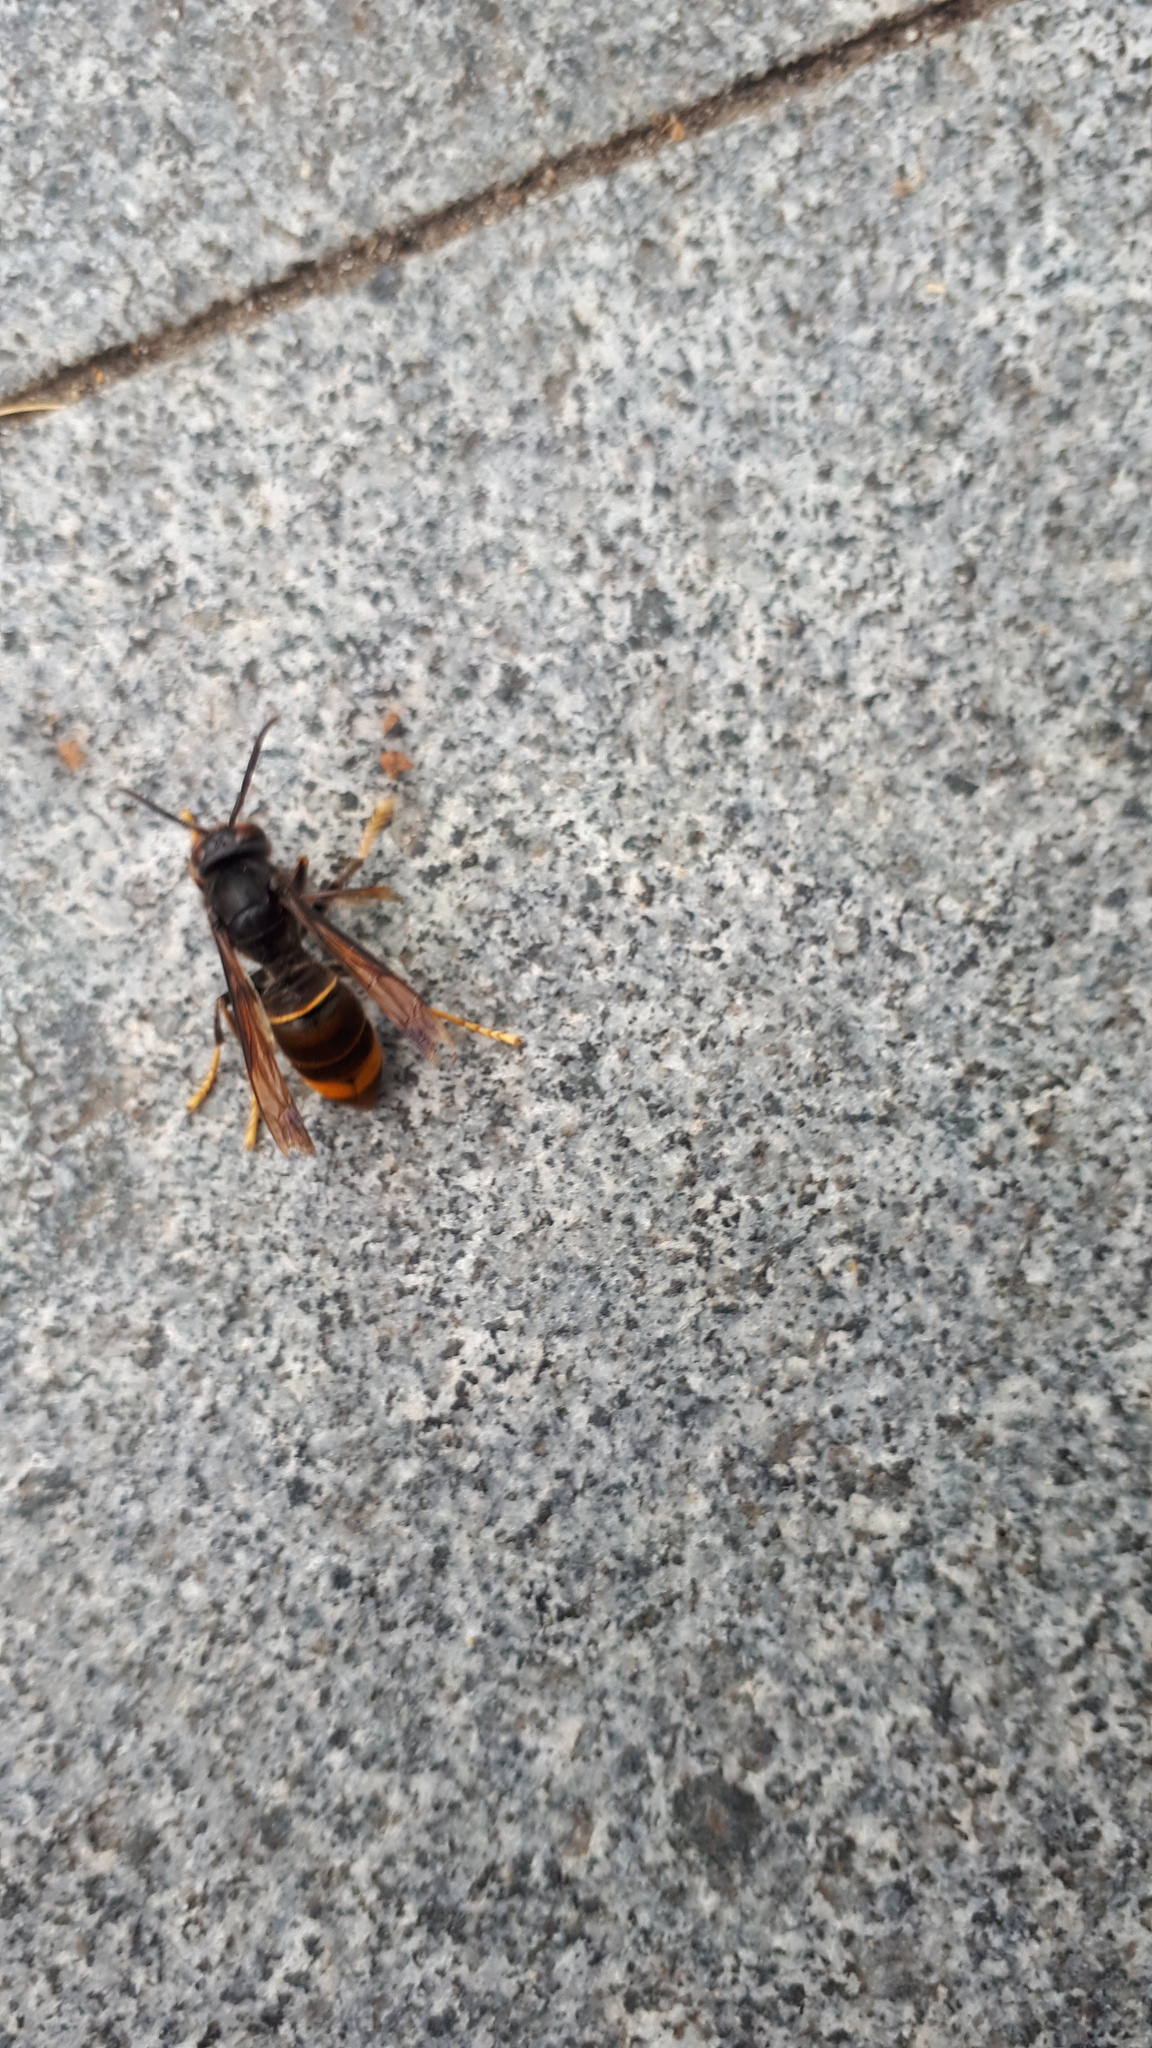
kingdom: Animalia
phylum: Arthropoda
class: Insecta
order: Hymenoptera
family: Vespidae
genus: Vespa
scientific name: Vespa velutina
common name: Asian hornet
